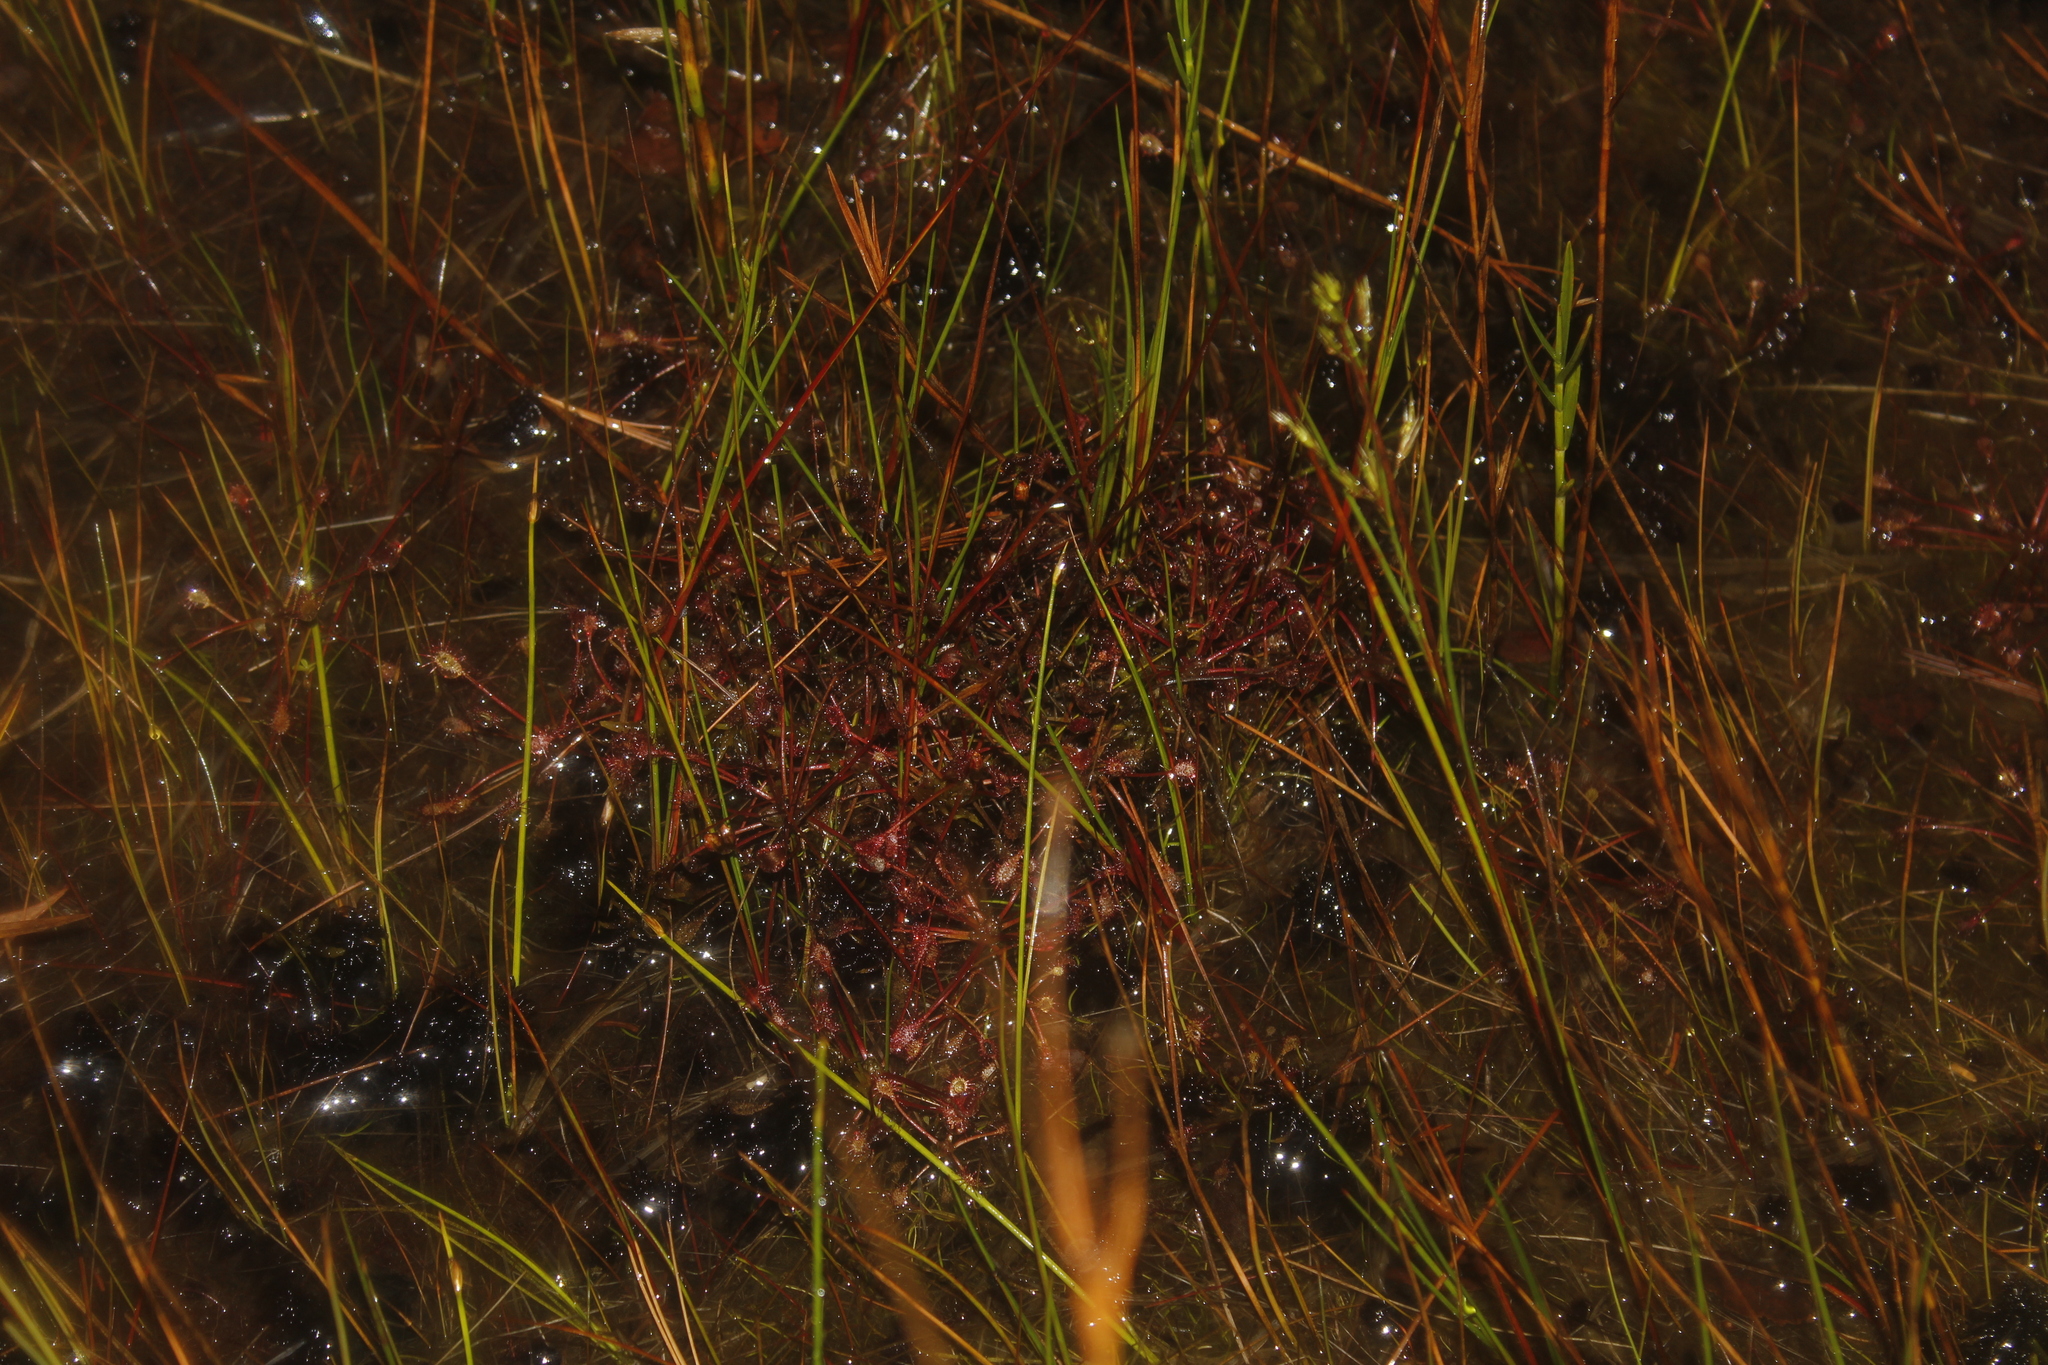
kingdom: Plantae
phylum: Tracheophyta
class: Magnoliopsida
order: Caryophyllales
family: Droseraceae
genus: Drosera
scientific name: Drosera intermedia
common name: Oblong-leaved sundew
